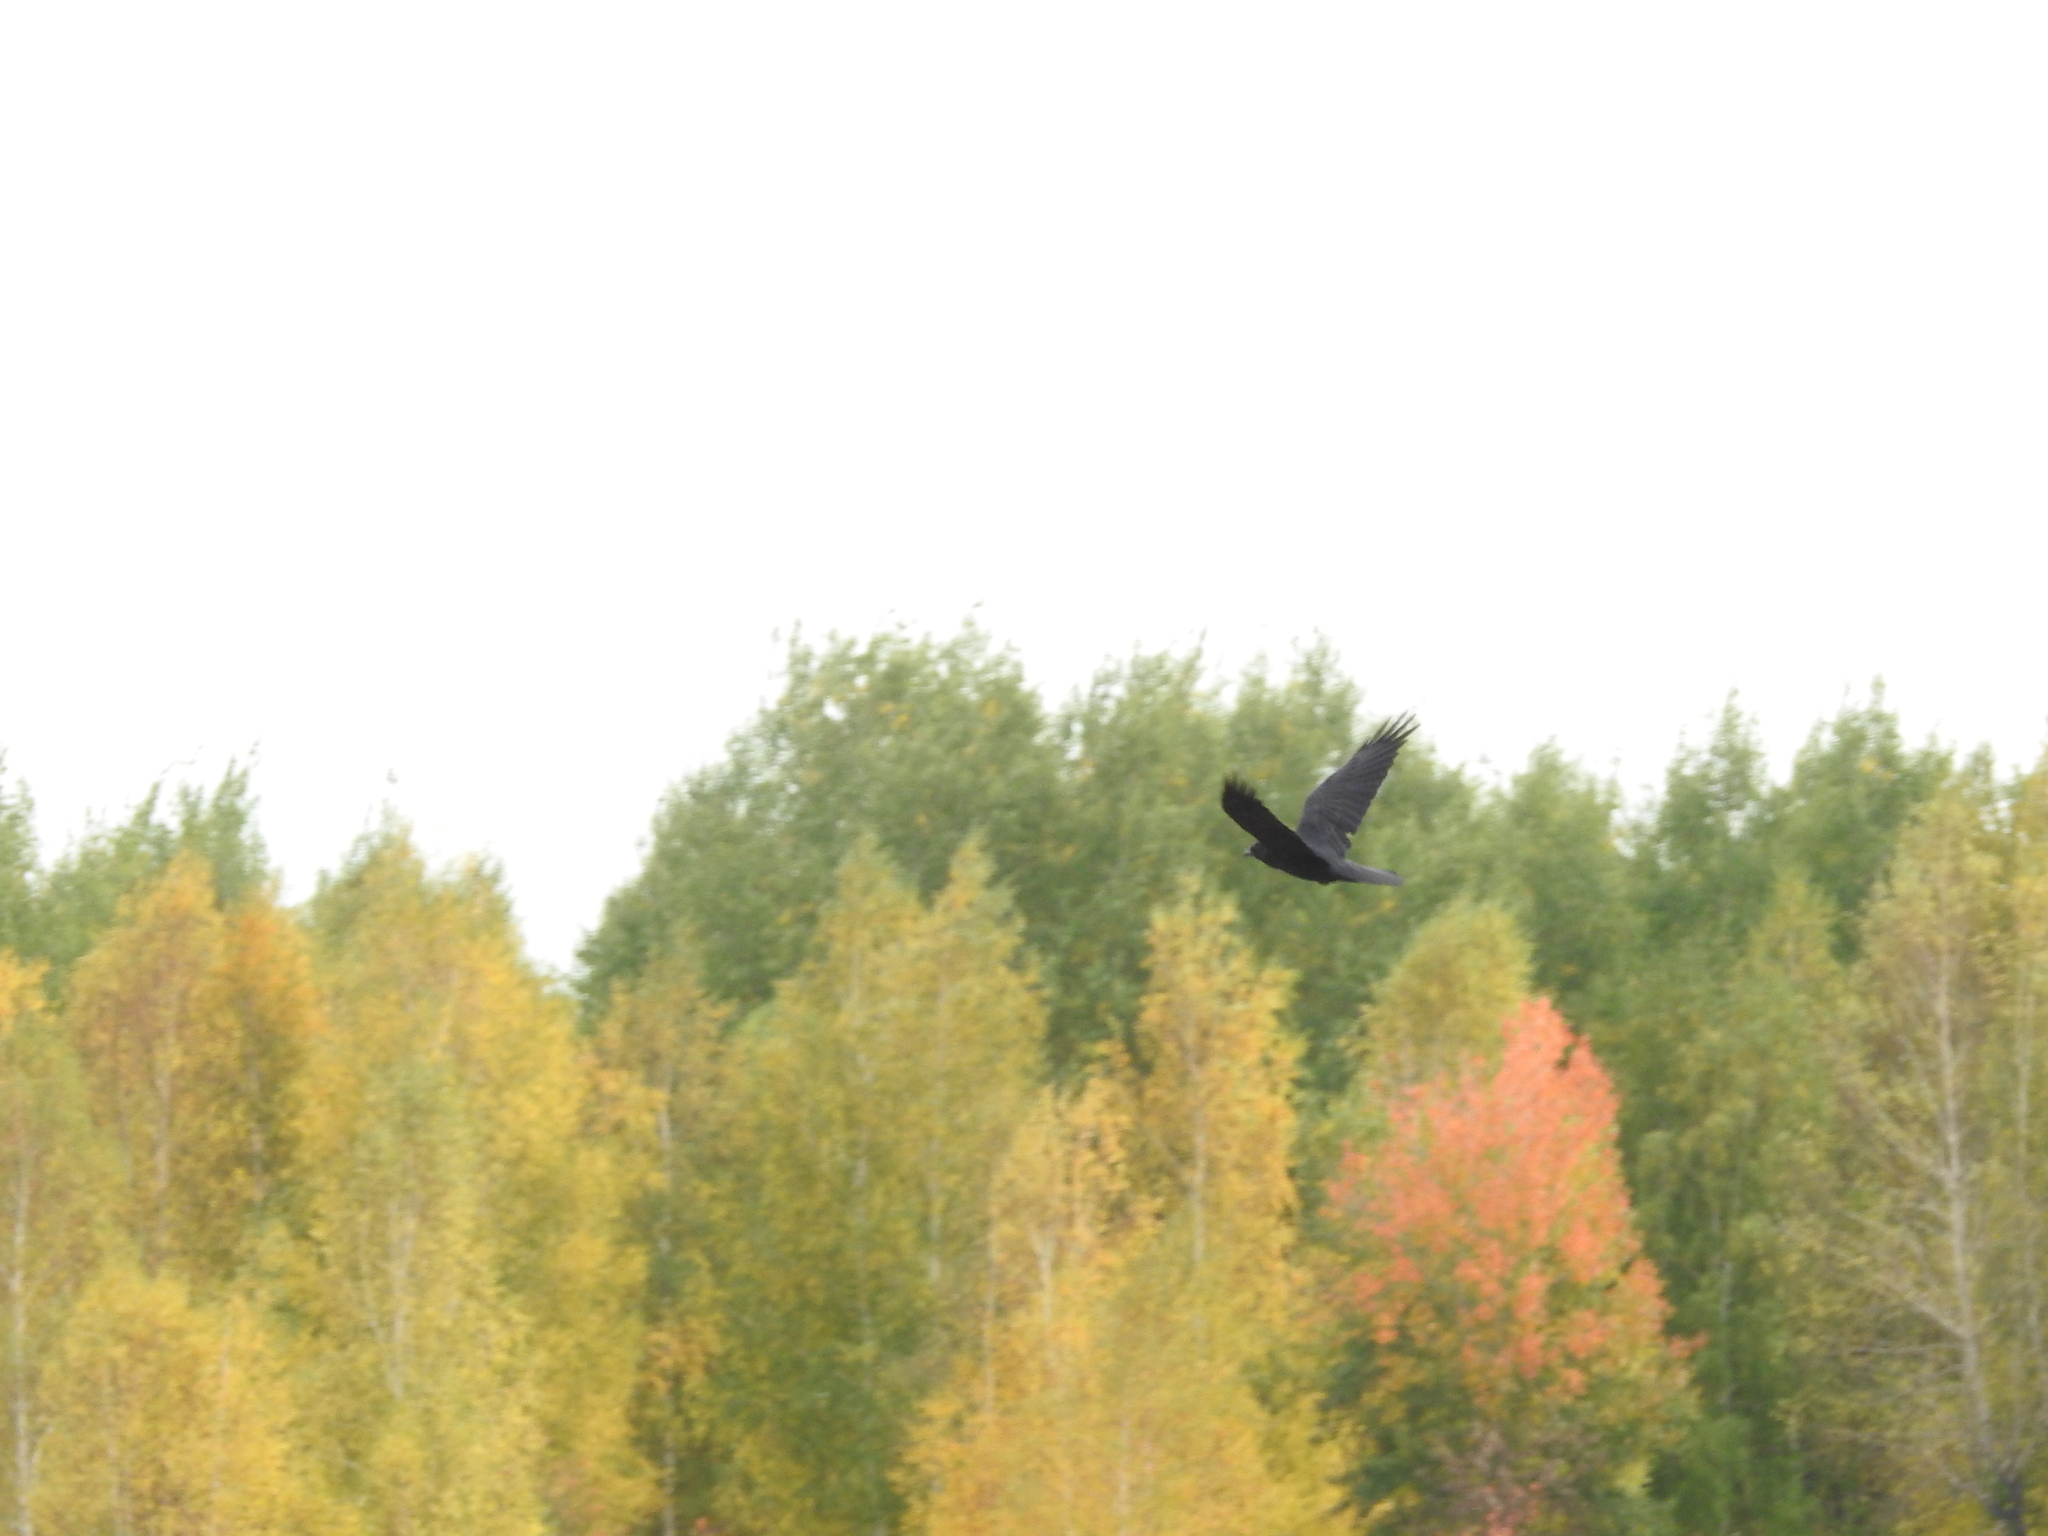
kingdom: Animalia
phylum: Chordata
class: Aves
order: Passeriformes
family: Corvidae
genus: Corvus
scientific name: Corvus corax
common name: Common raven
